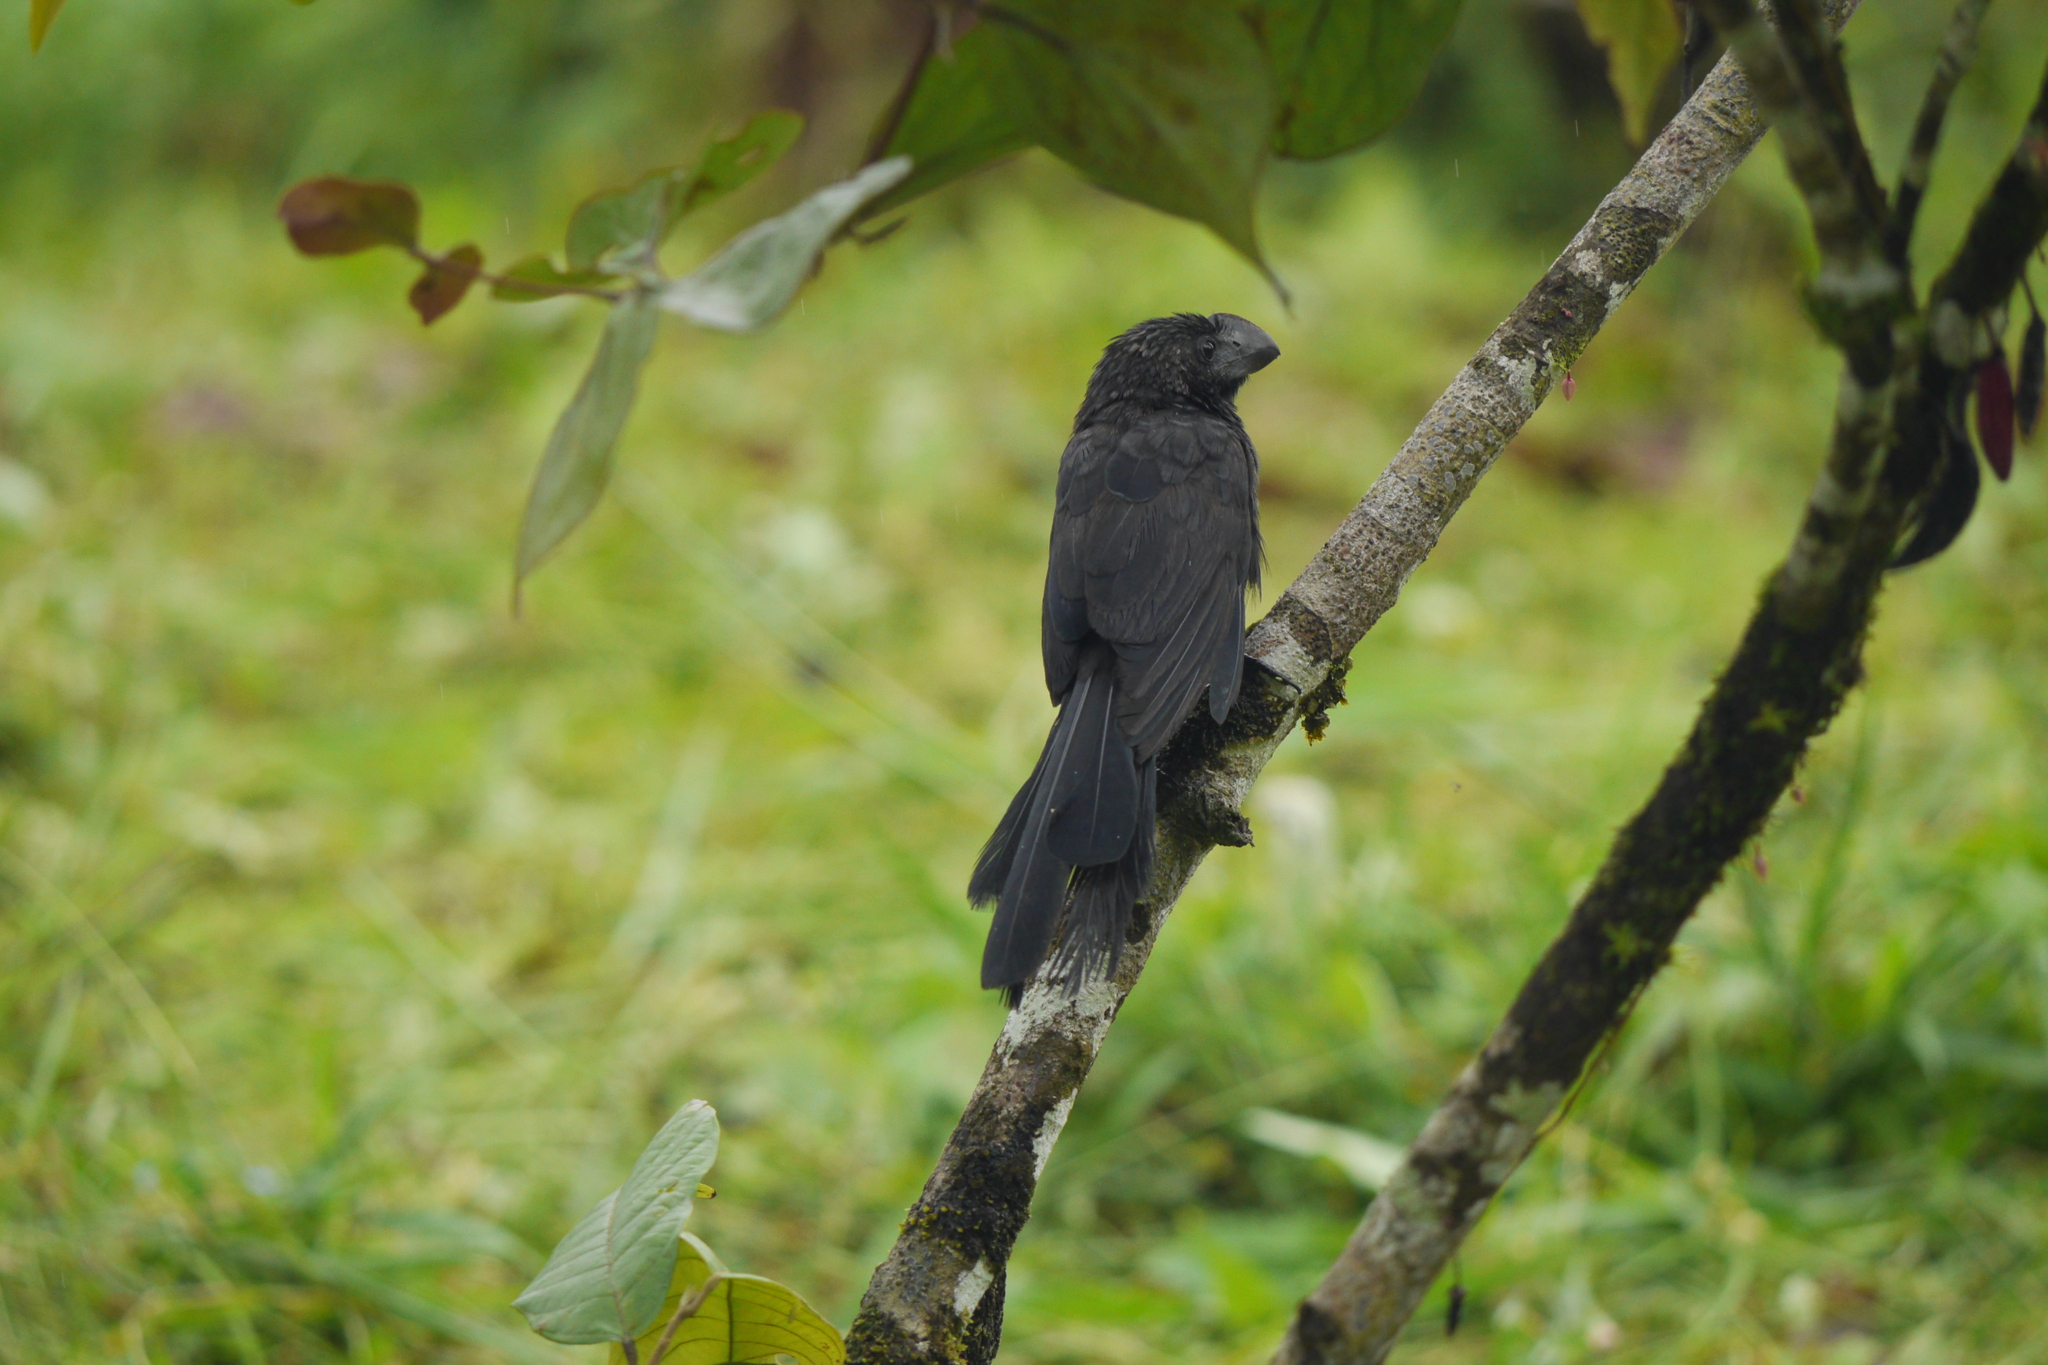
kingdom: Animalia
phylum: Chordata
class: Aves
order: Cuculiformes
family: Cuculidae
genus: Crotophaga
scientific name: Crotophaga ani
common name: Smooth-billed ani
